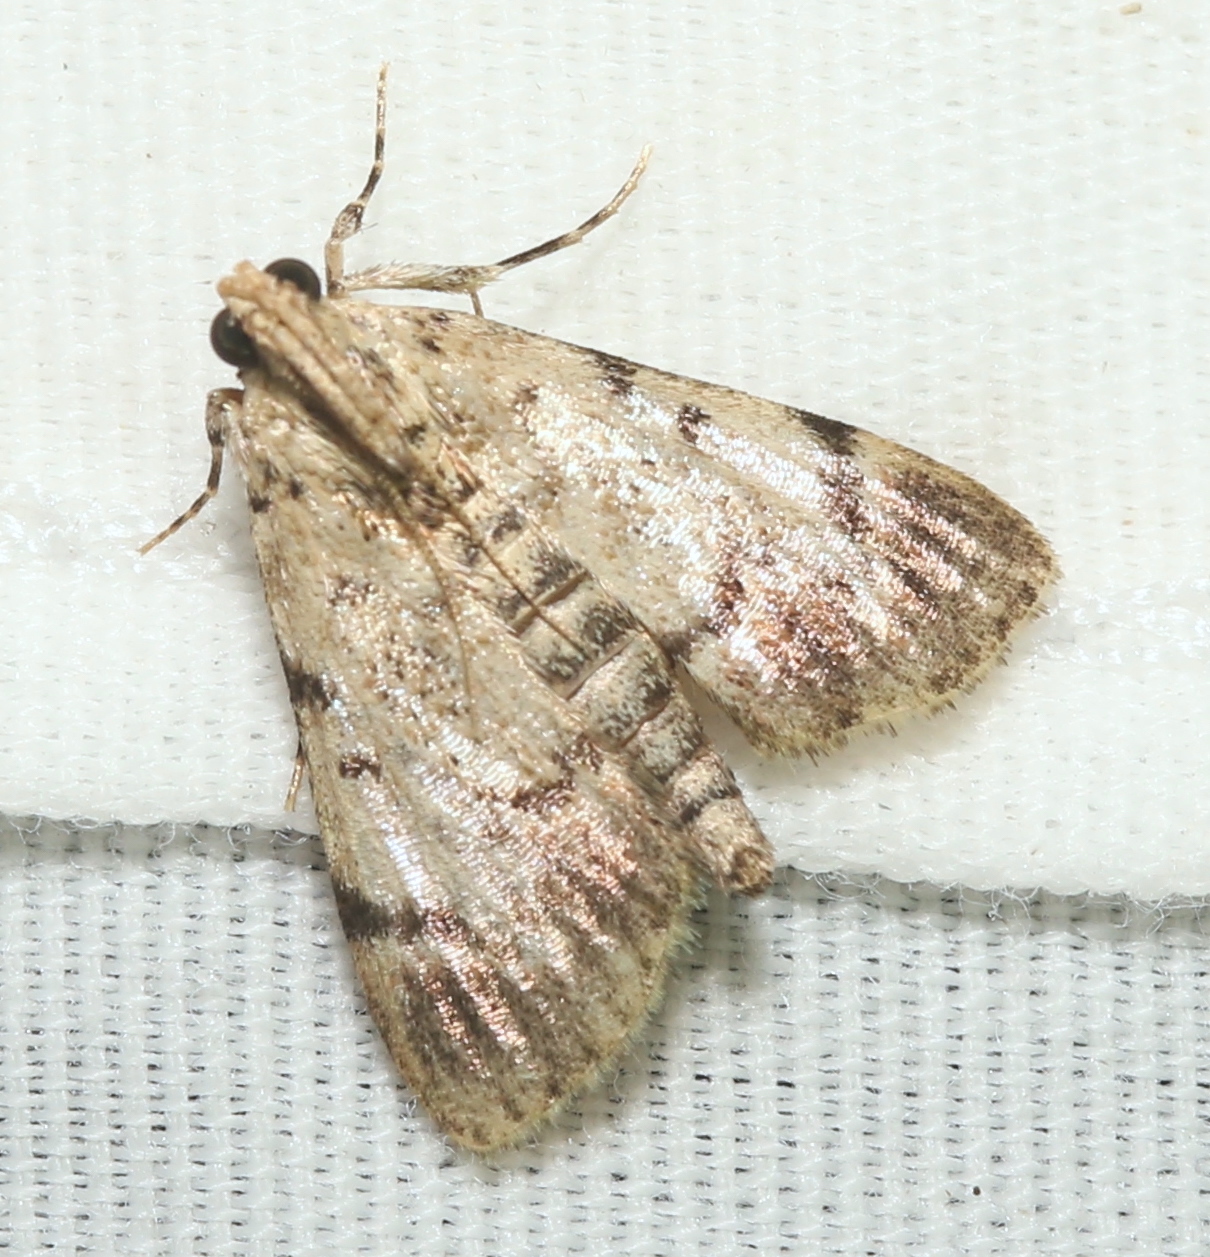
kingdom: Animalia
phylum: Arthropoda
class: Insecta
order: Lepidoptera
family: Pyralidae
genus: Epipaschia
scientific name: Epipaschia superatalis
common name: Dimorphic macalla moth
